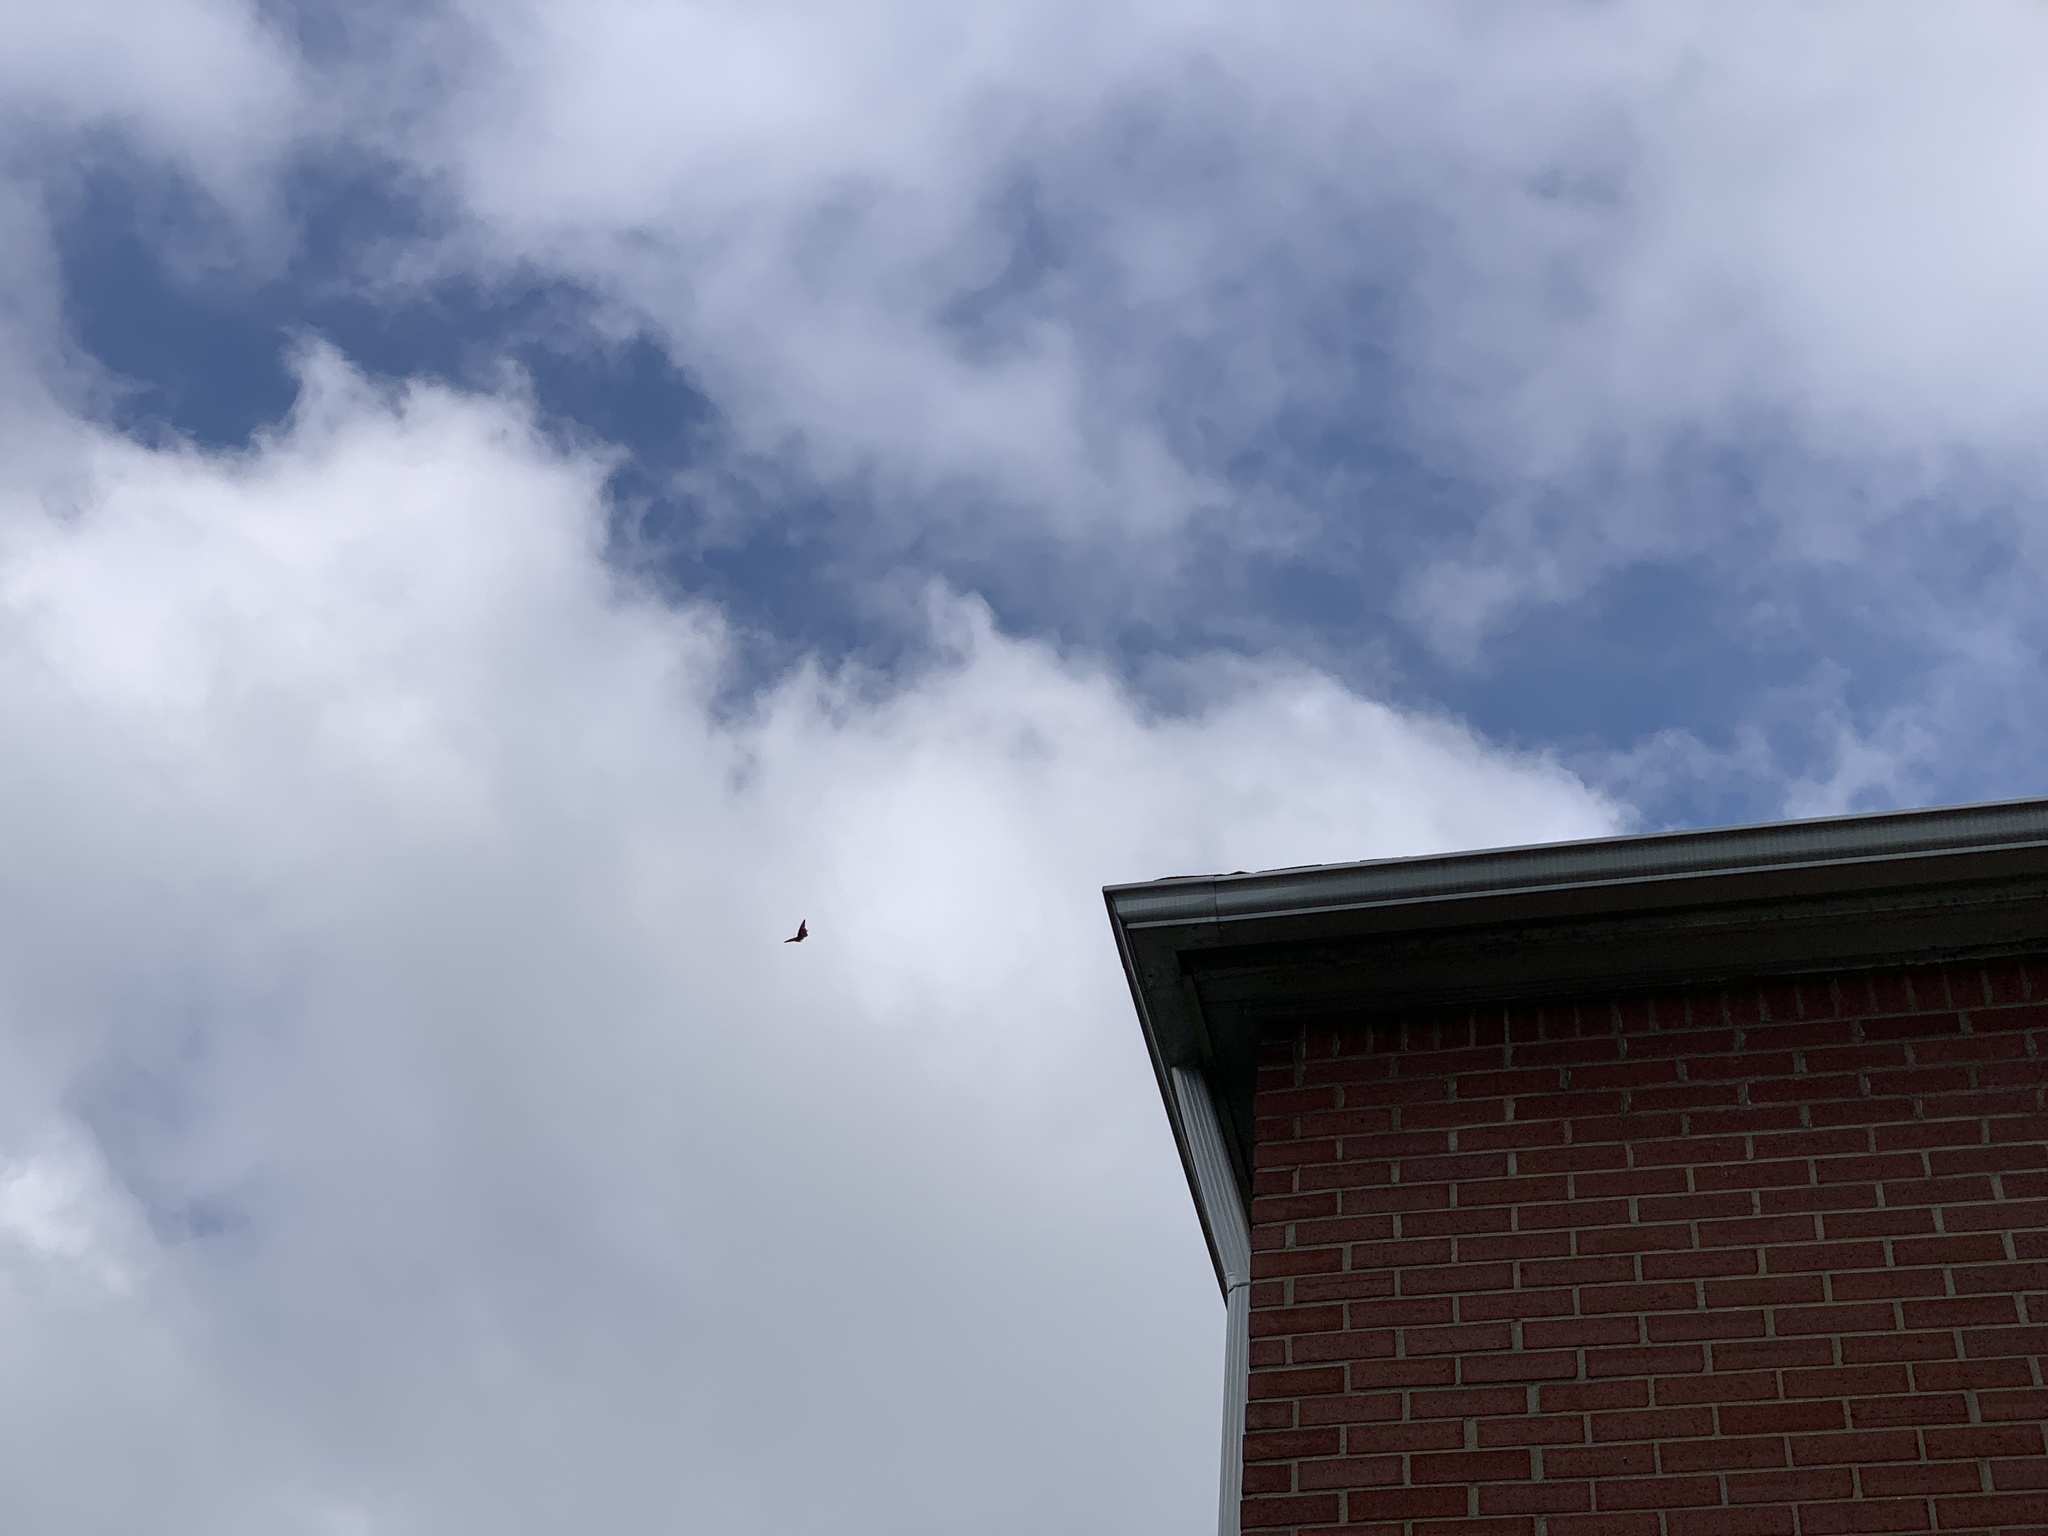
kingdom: Animalia
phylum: Arthropoda
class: Insecta
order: Lepidoptera
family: Papilionidae
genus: Papilio
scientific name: Papilio polyxenes
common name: Black swallowtail
